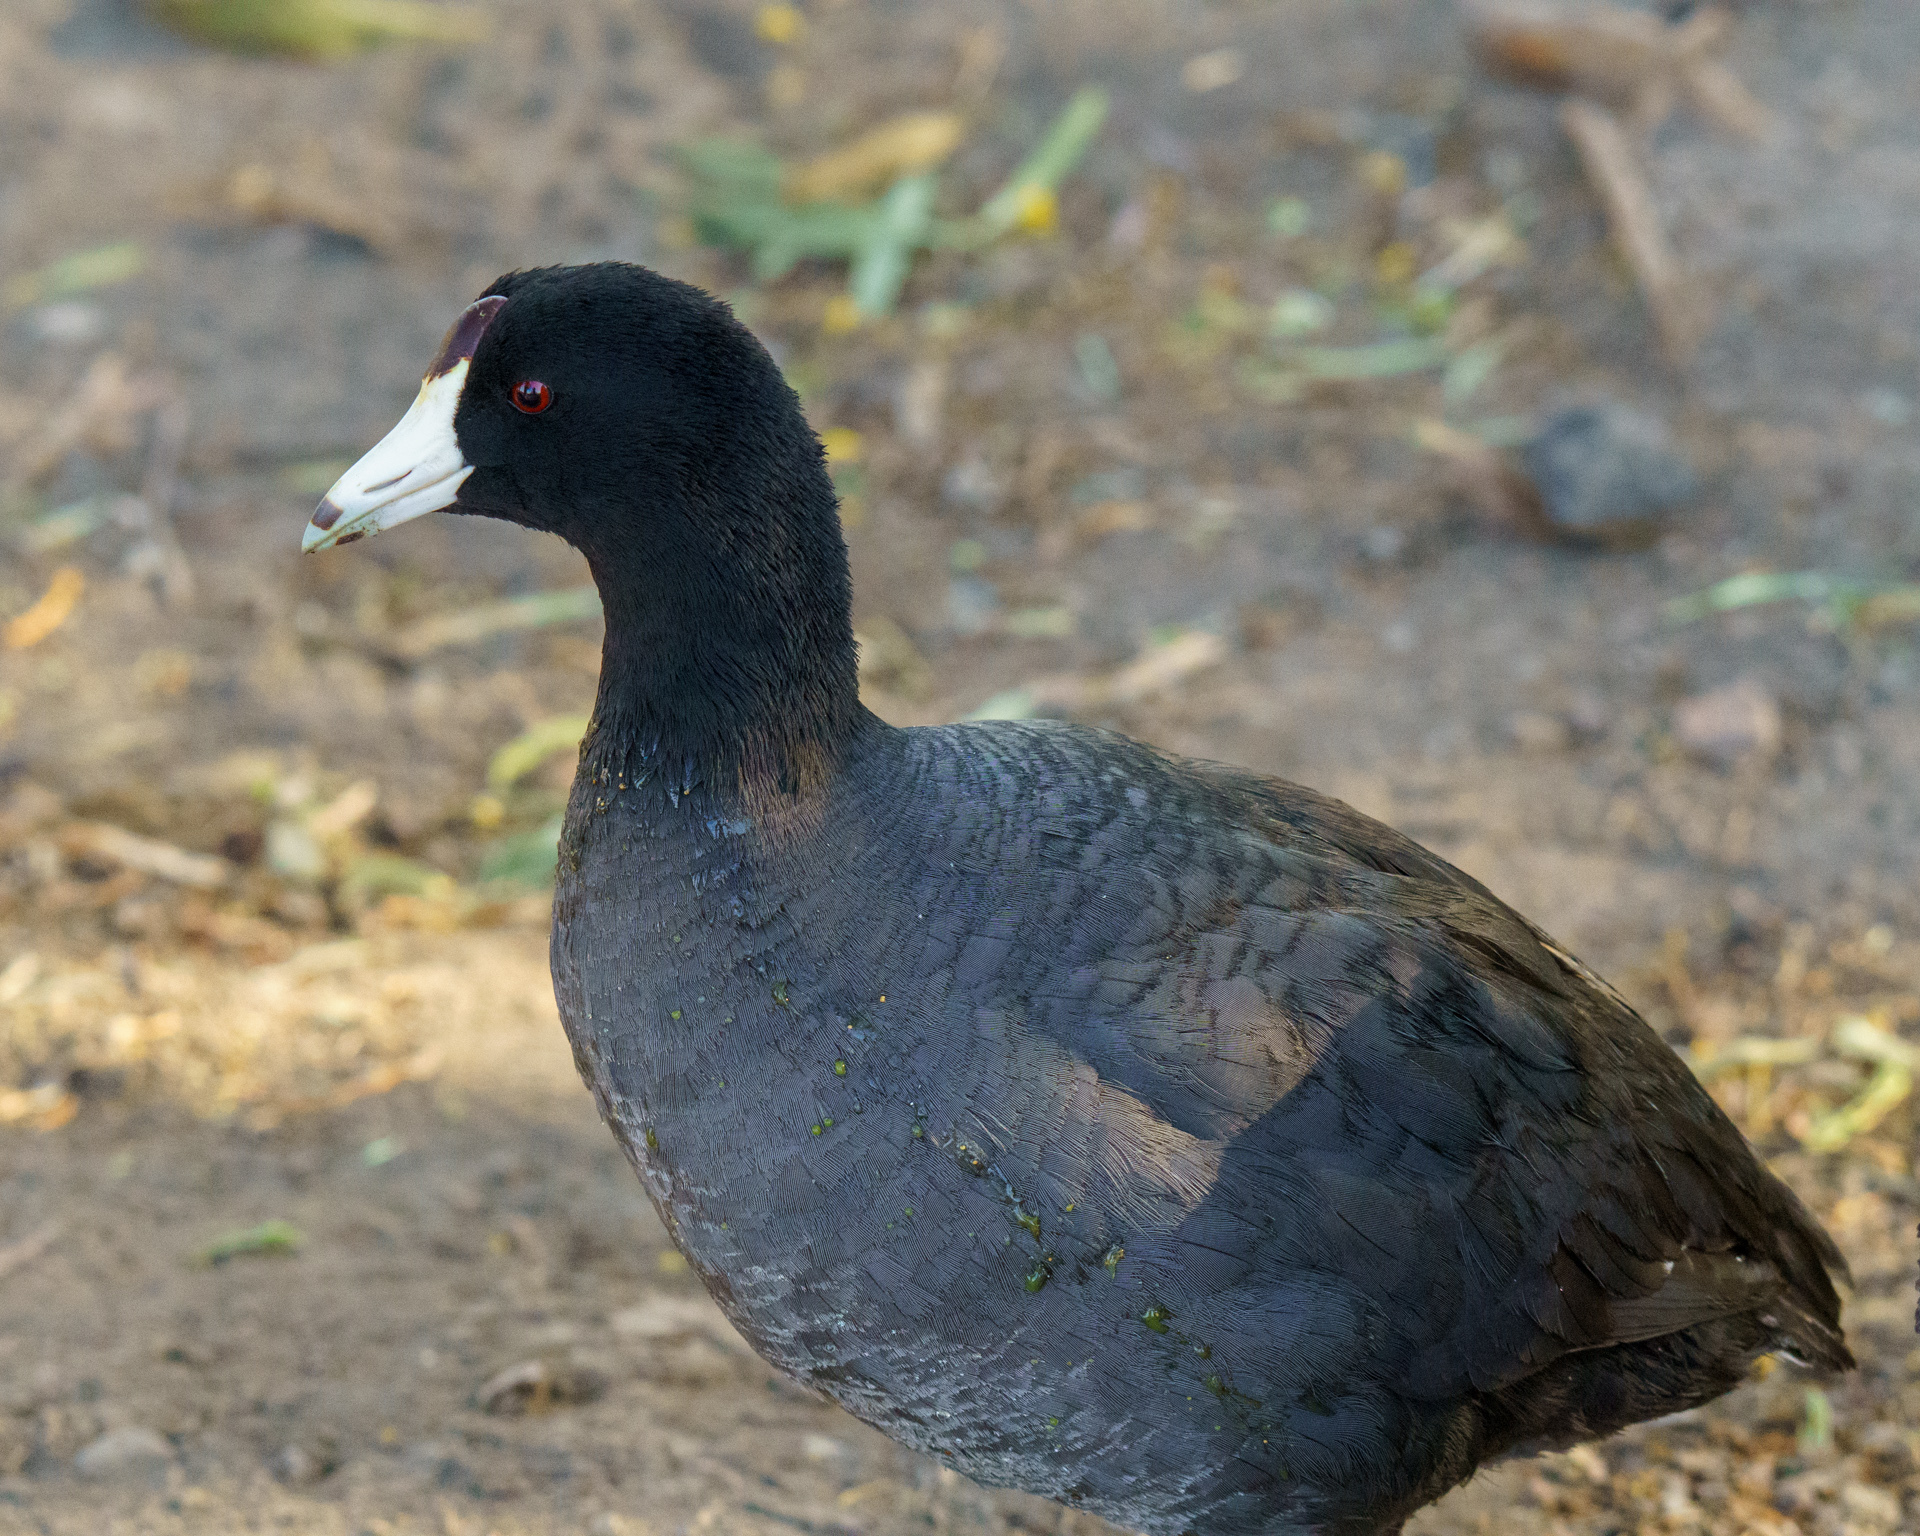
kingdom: Animalia
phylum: Chordata
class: Aves
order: Gruiformes
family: Rallidae
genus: Fulica
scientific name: Fulica americana
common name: American coot
